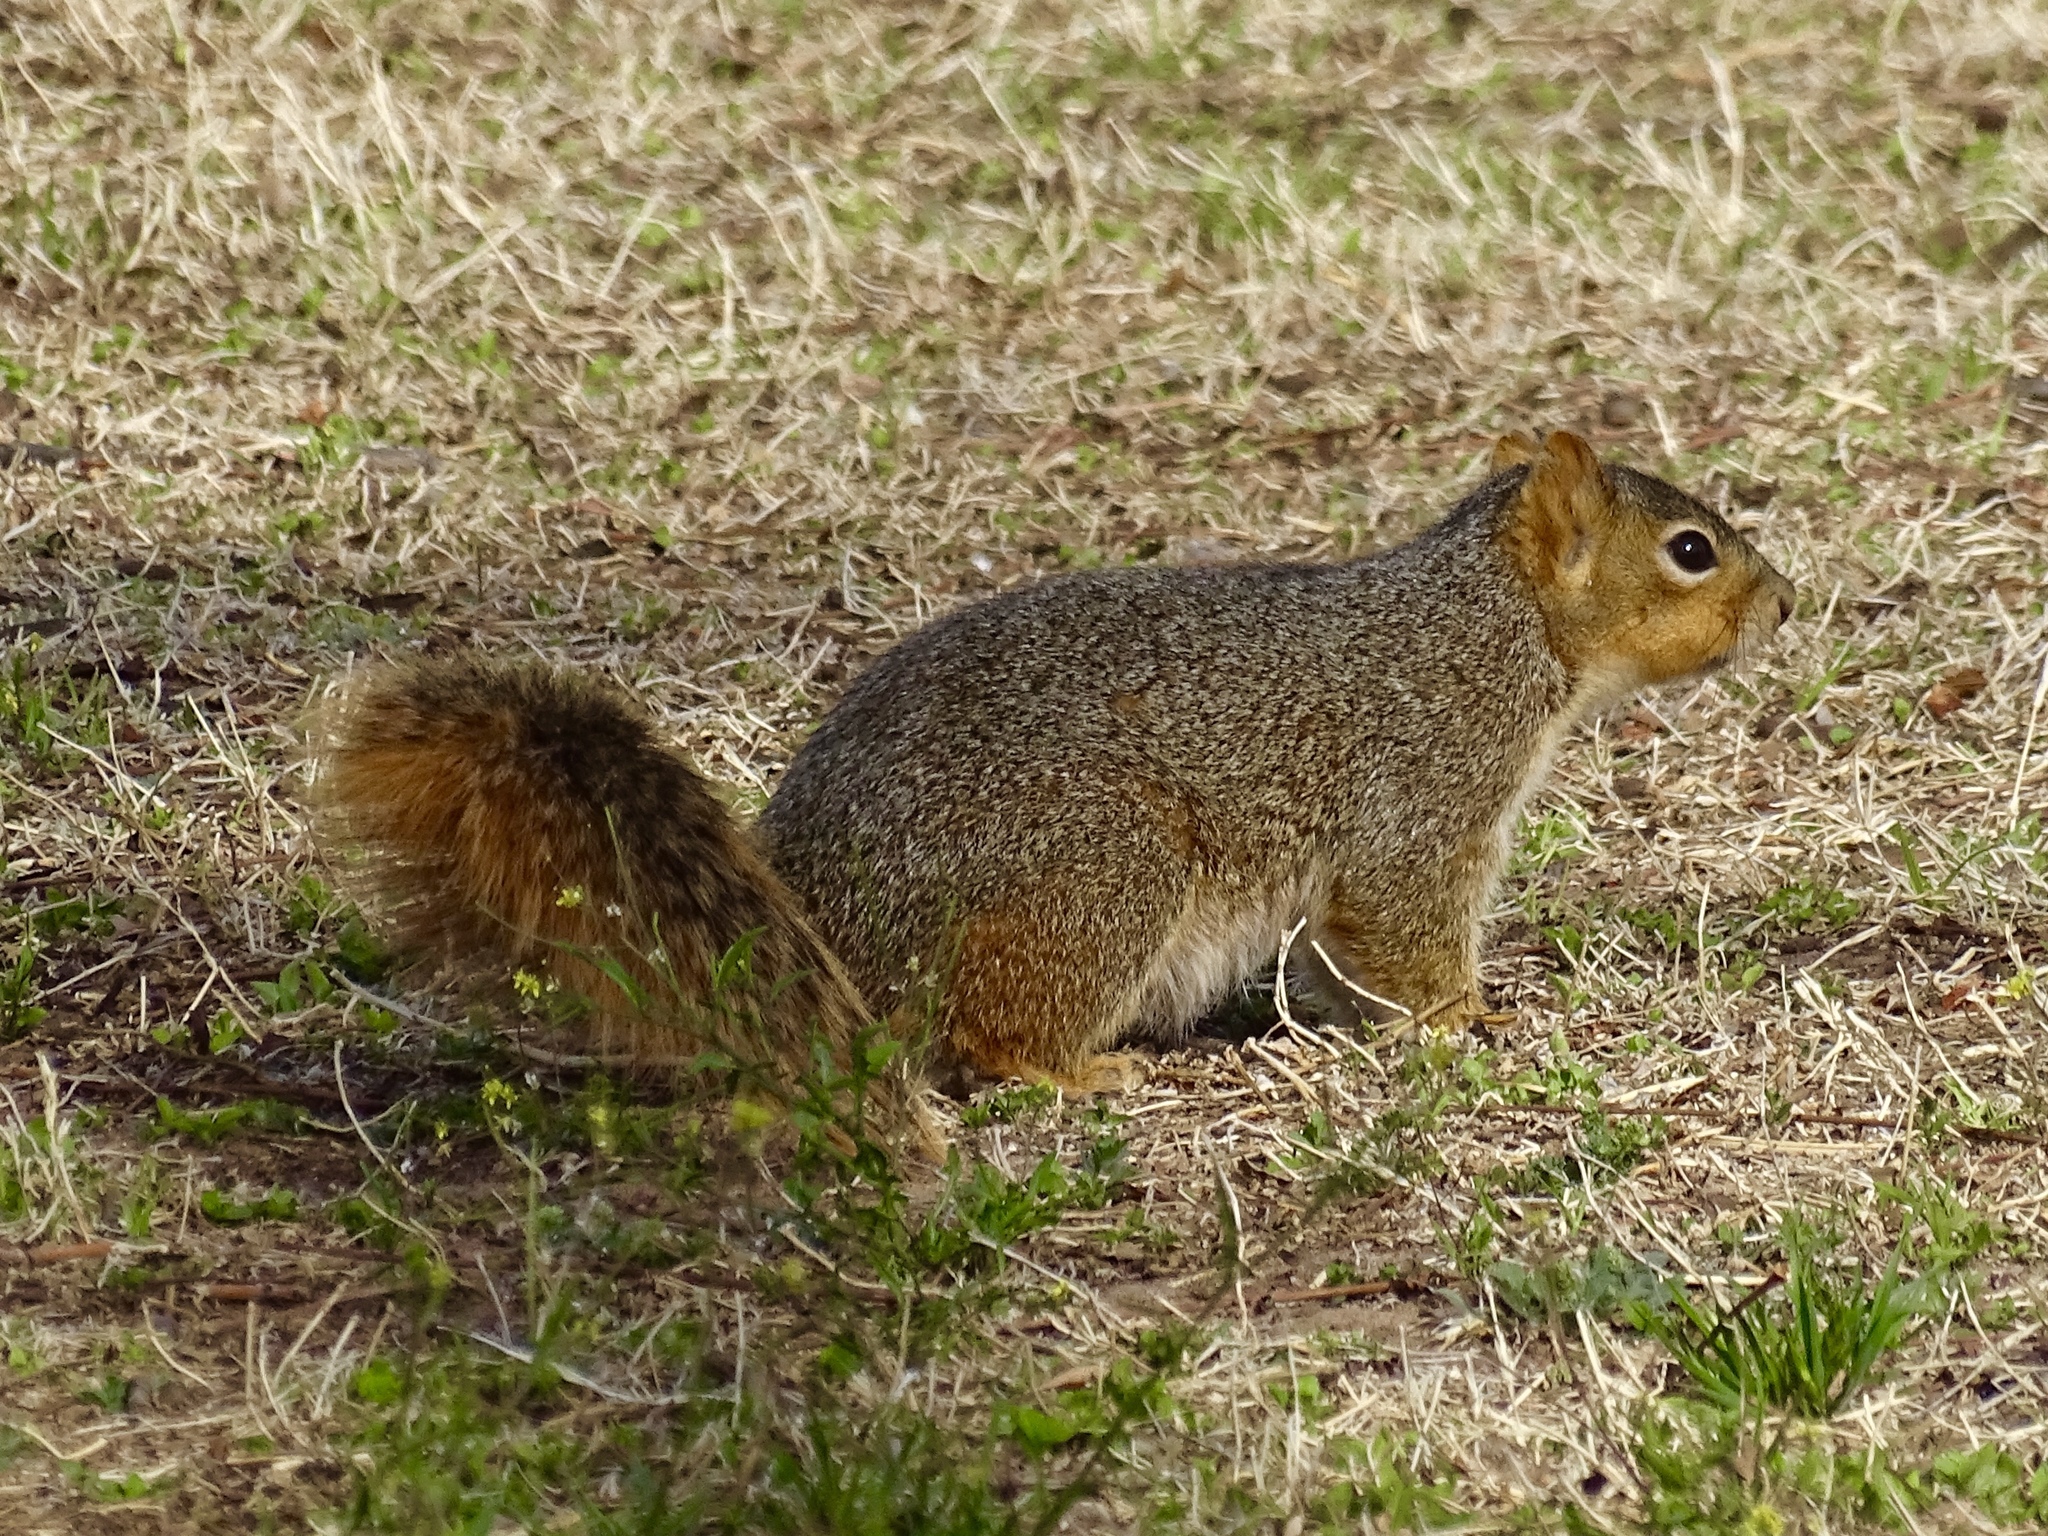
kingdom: Animalia
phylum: Chordata
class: Mammalia
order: Rodentia
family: Sciuridae
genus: Sciurus
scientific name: Sciurus niger
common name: Fox squirrel
